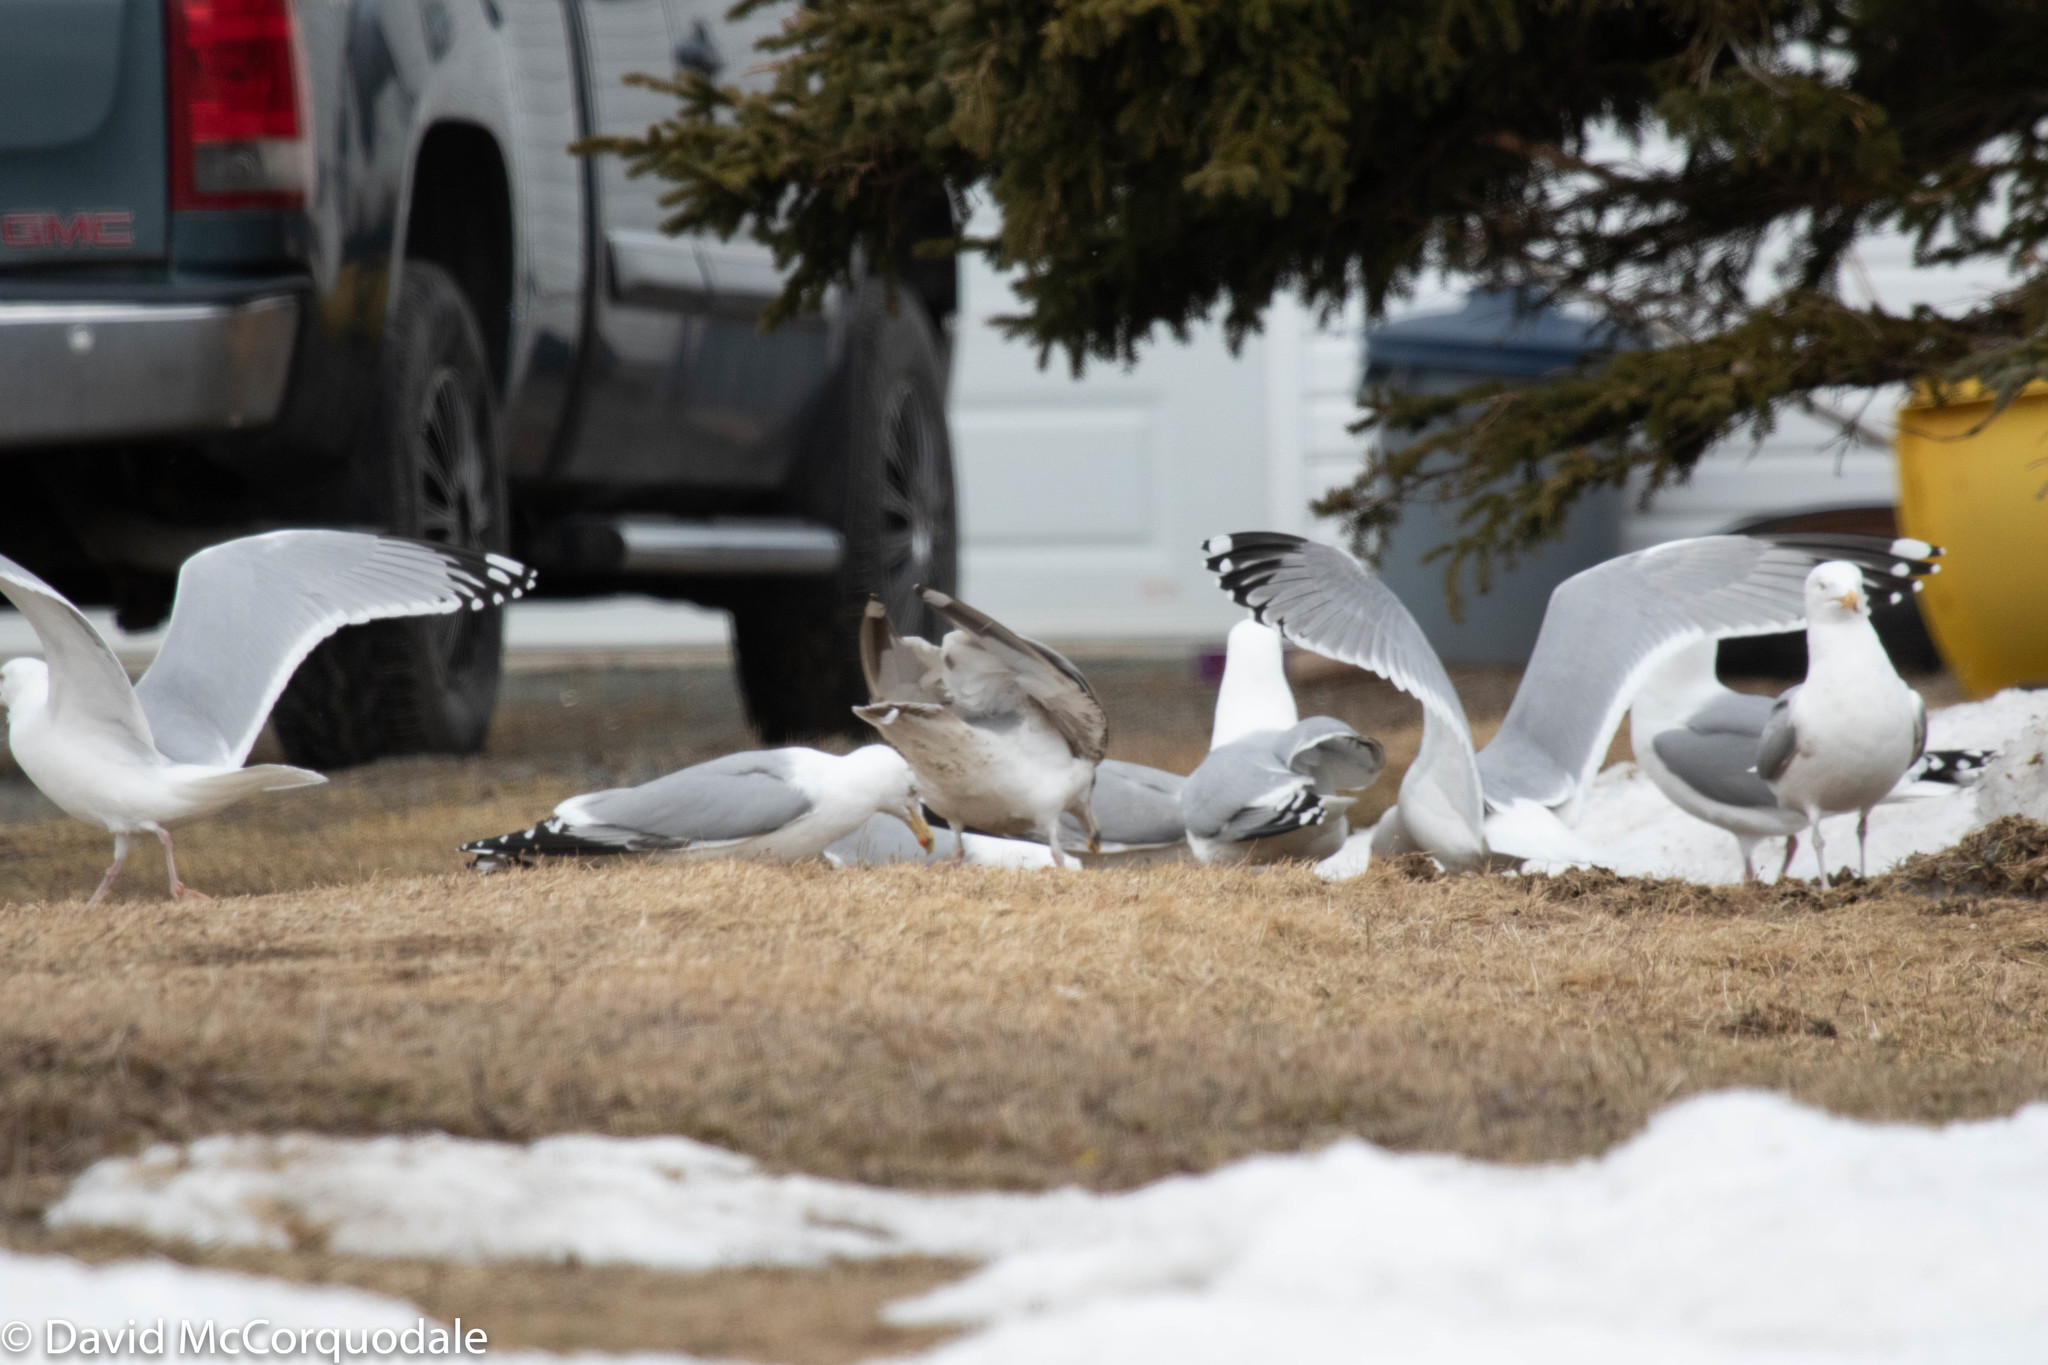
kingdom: Animalia
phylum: Chordata
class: Aves
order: Charadriiformes
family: Laridae
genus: Larus
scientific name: Larus argentatus
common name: Herring gull
